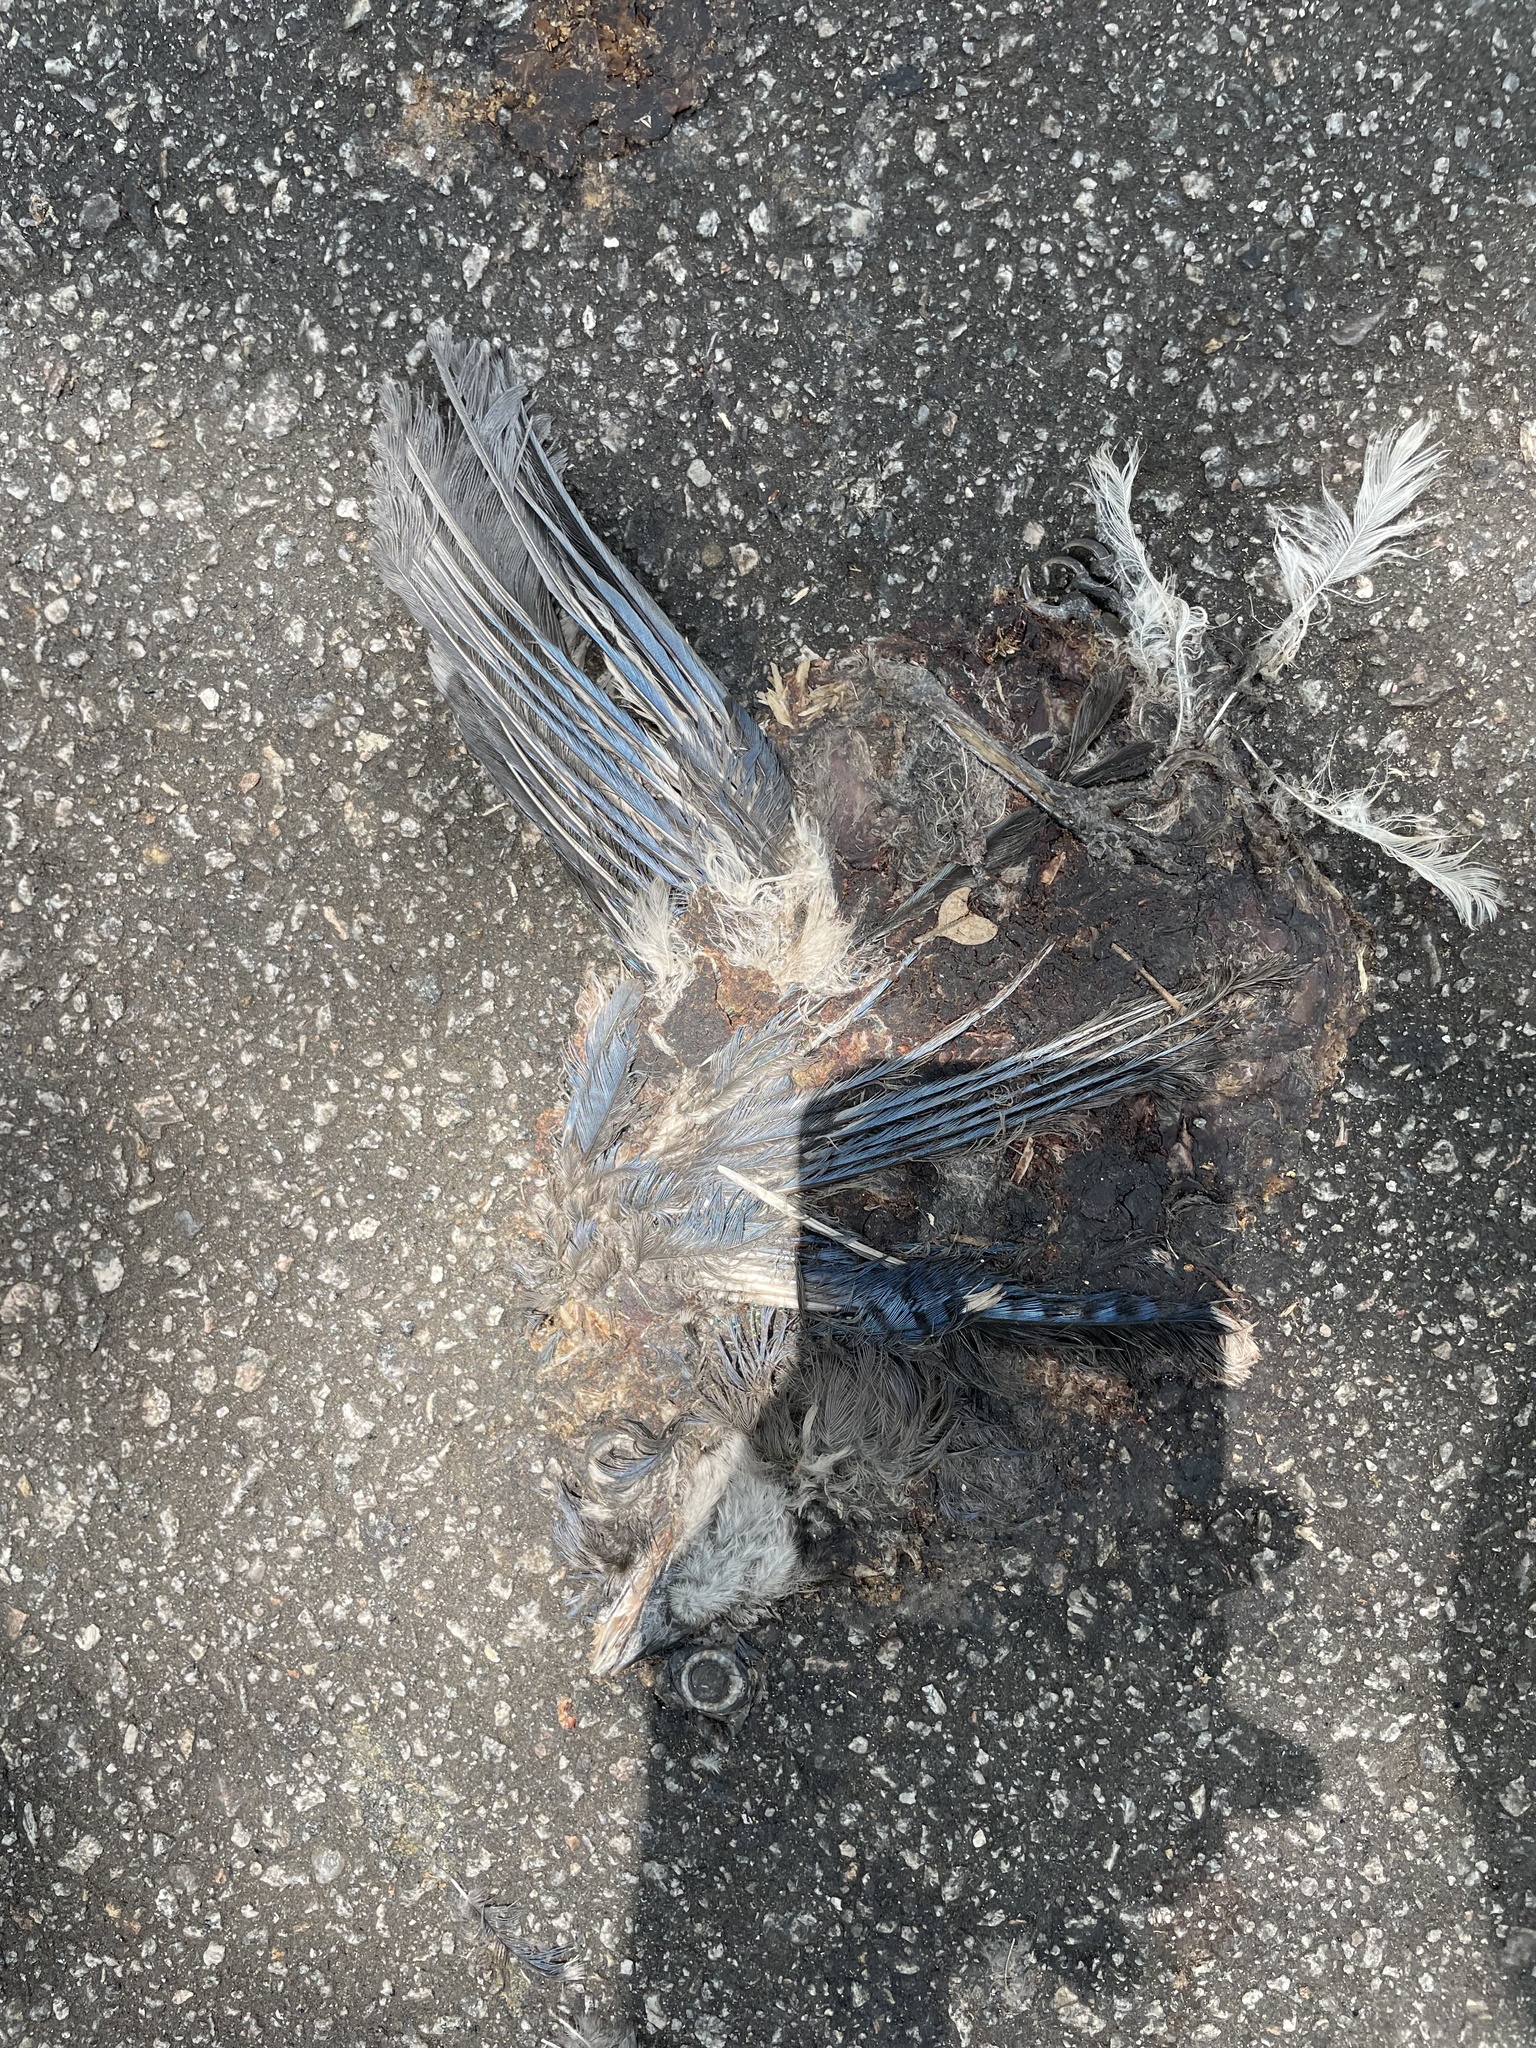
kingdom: Animalia
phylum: Chordata
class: Aves
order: Passeriformes
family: Corvidae
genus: Cyanocitta
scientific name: Cyanocitta cristata
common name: Blue jay
